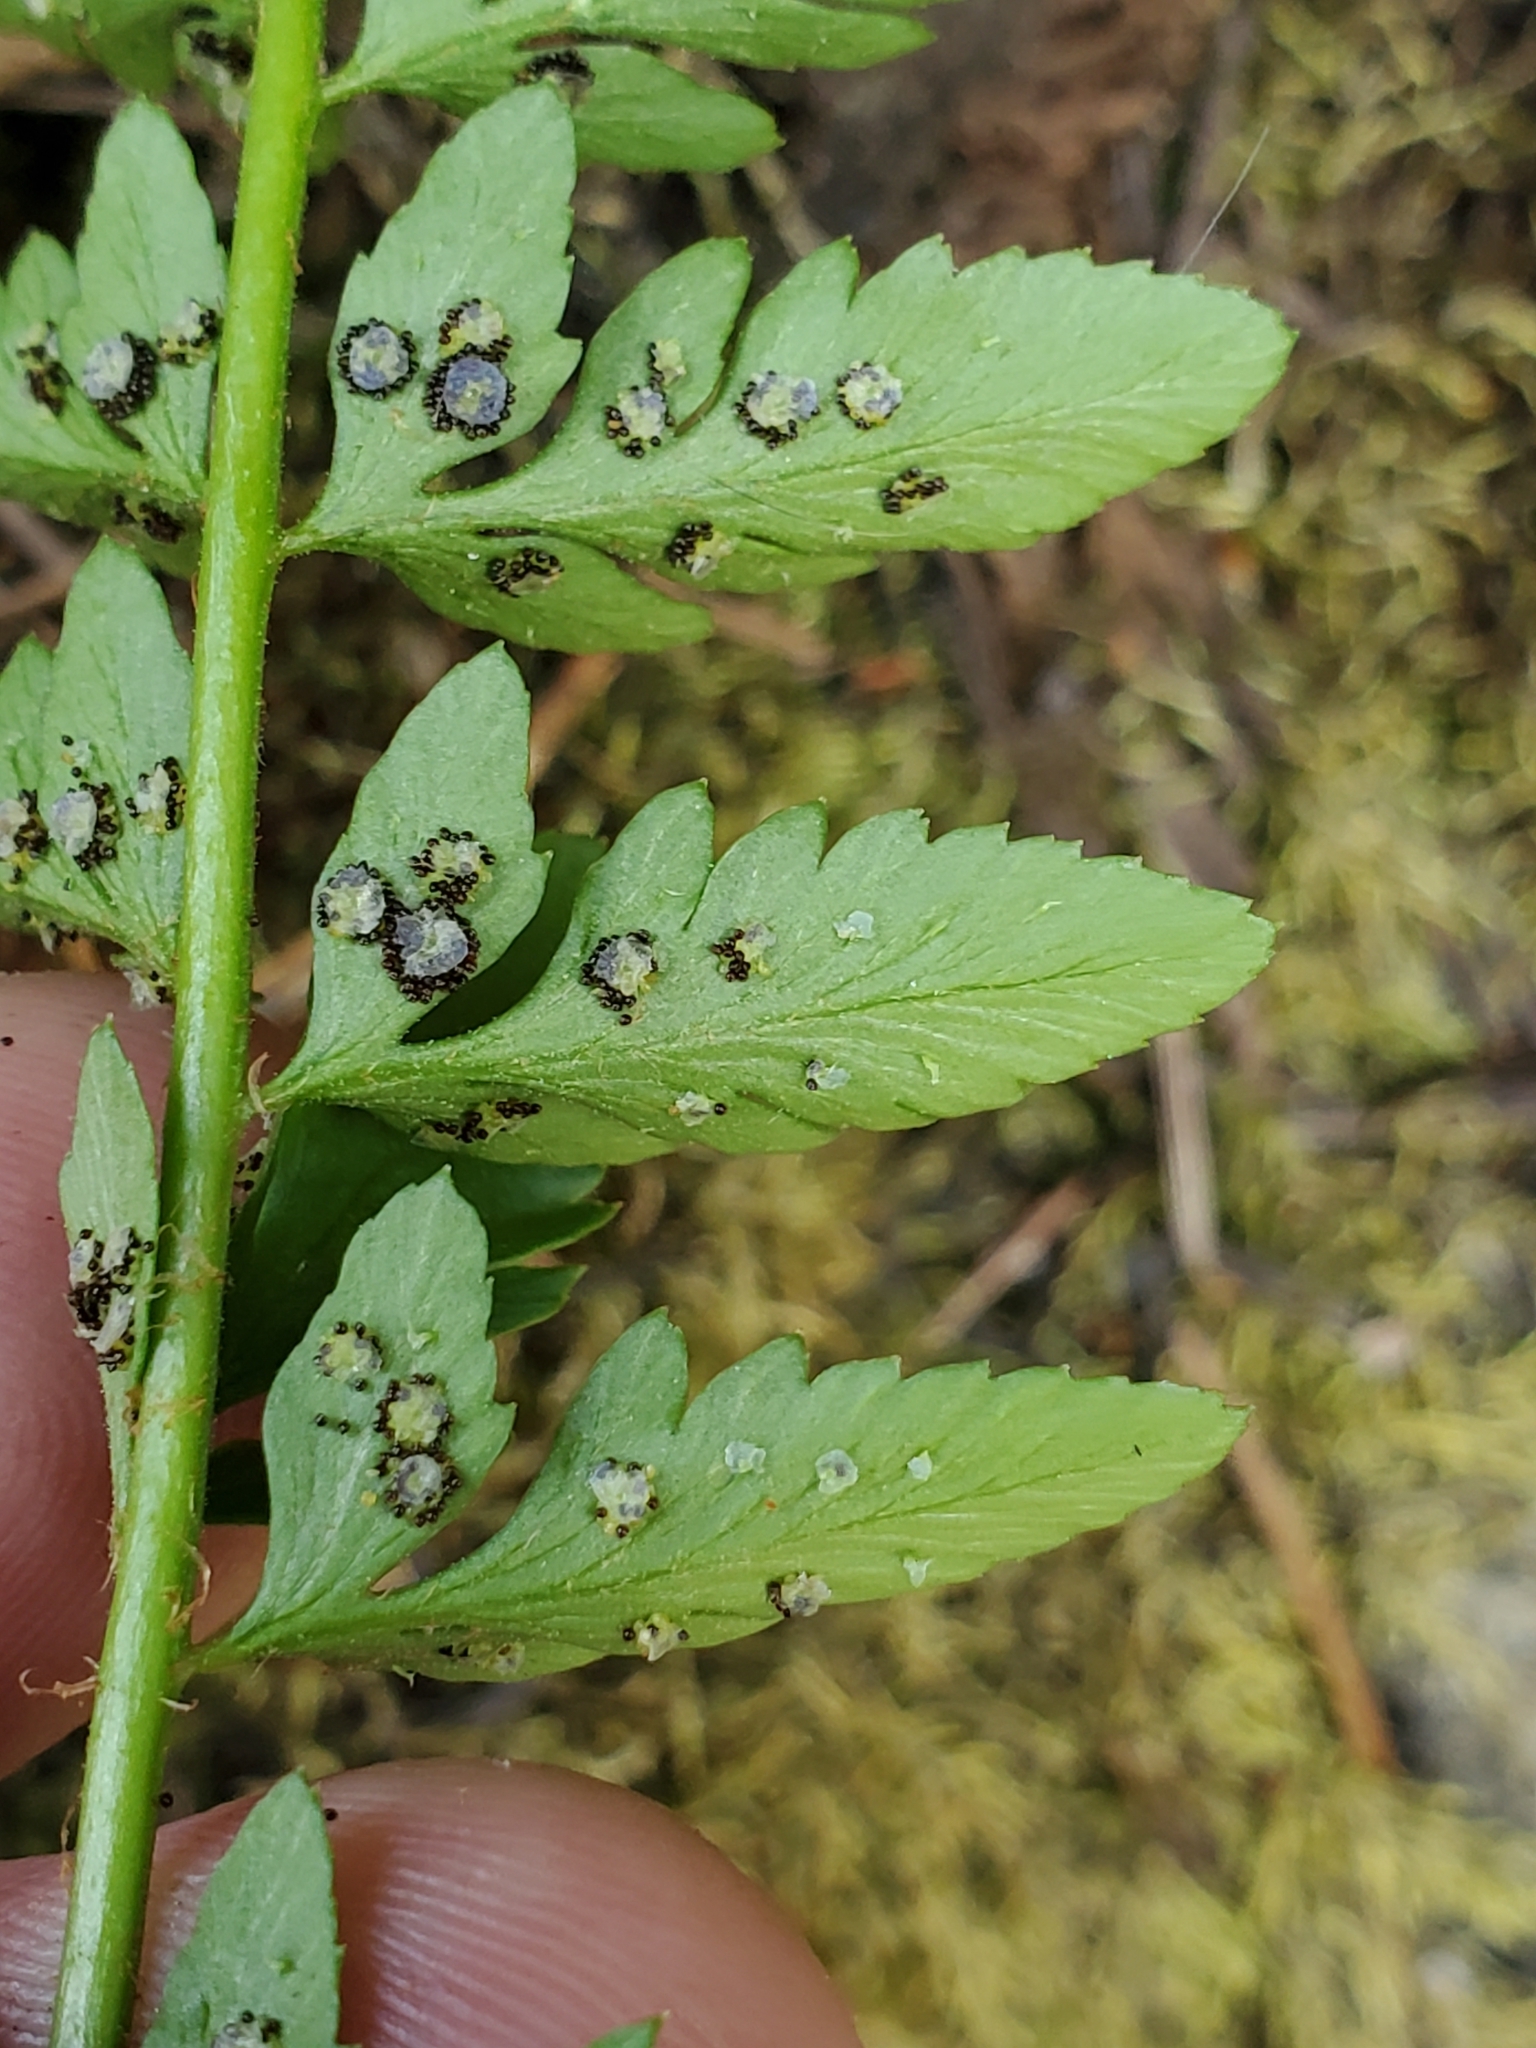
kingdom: Plantae
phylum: Tracheophyta
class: Polypodiopsida
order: Polypodiales
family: Dryopteridaceae
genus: Polystichum
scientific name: Polystichum scopulinum
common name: Eaton's shield fern
